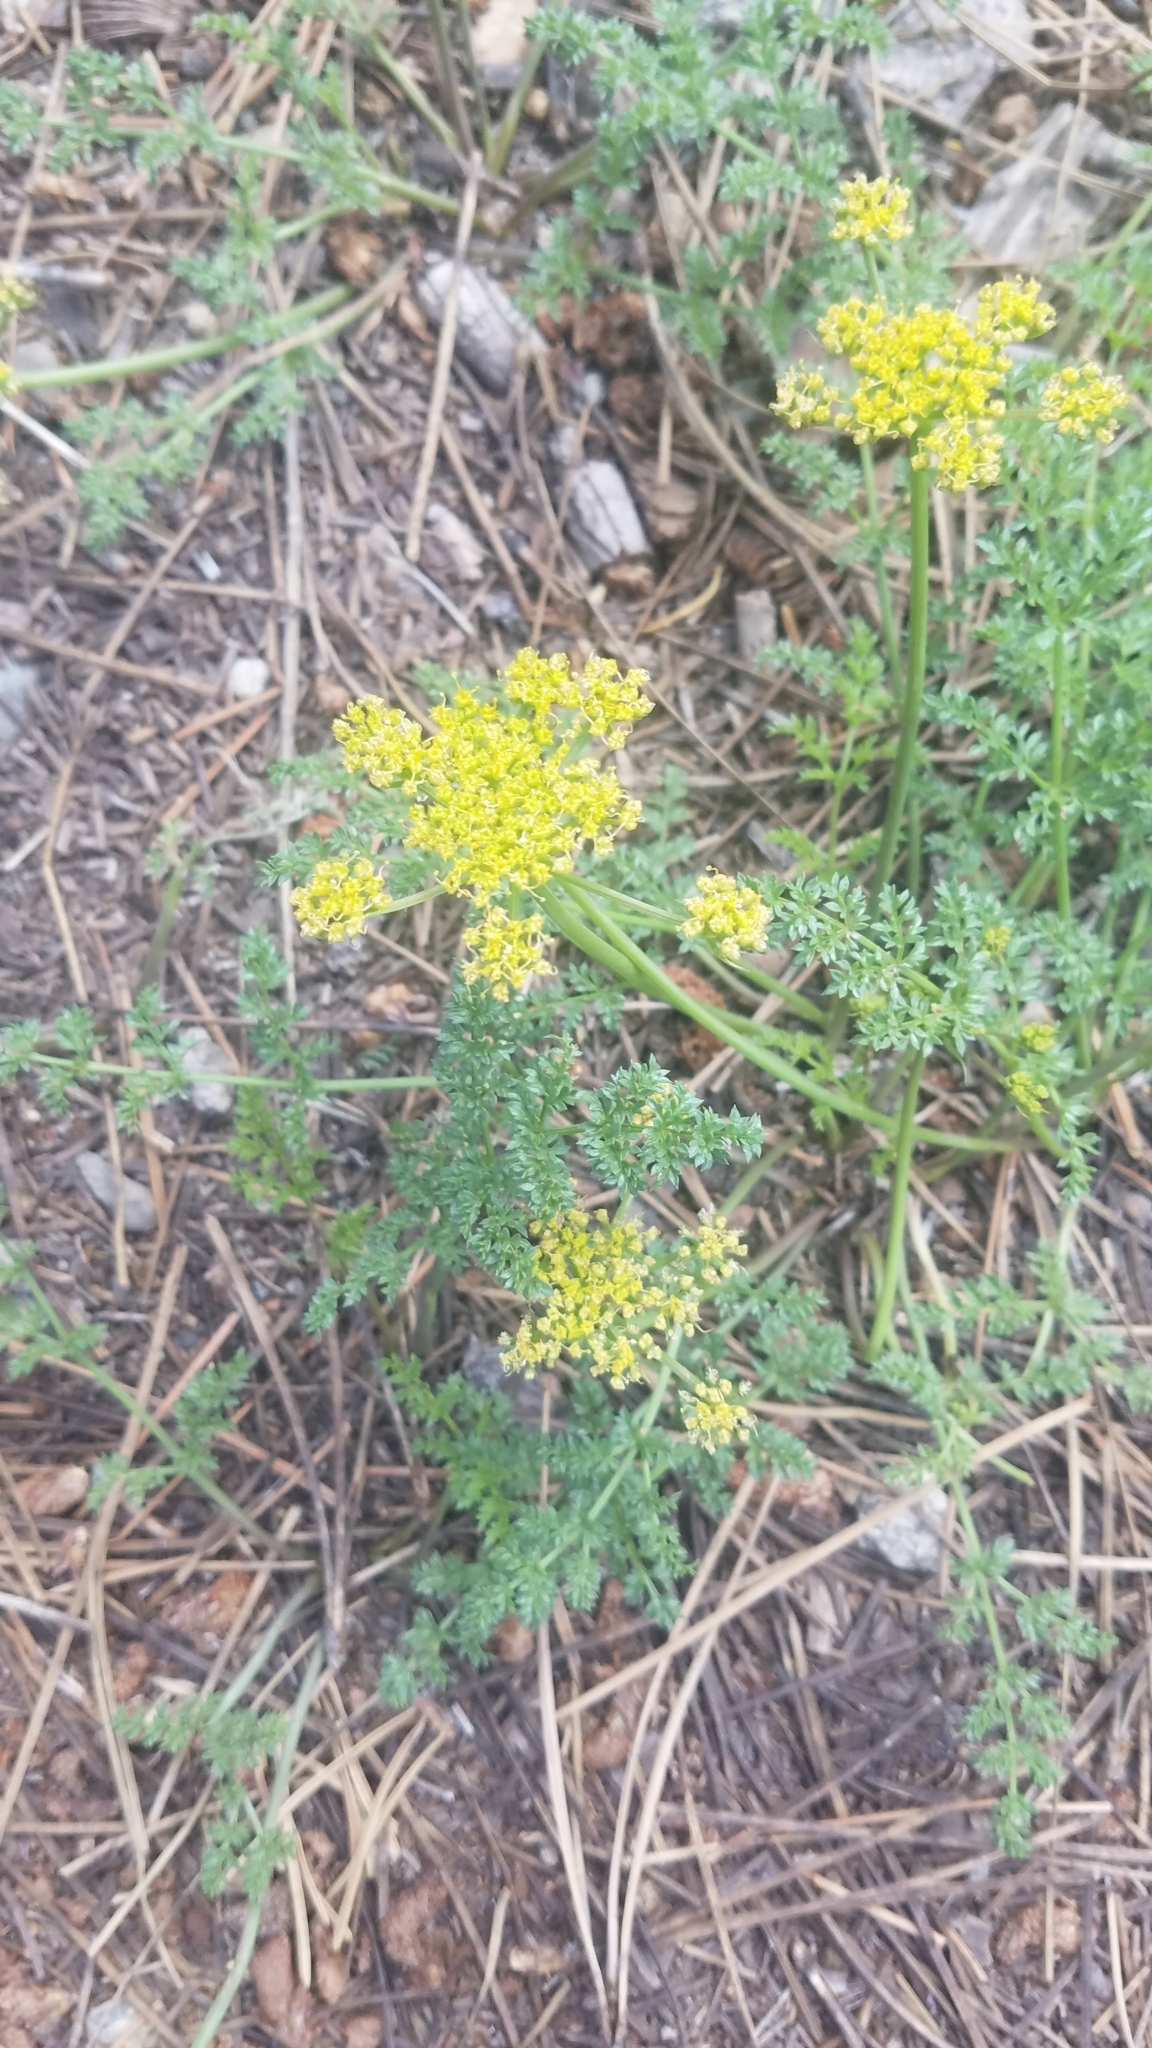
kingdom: Plantae
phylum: Tracheophyta
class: Magnoliopsida
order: Apiales
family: Apiaceae
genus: Pteryxia
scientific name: Pteryxia terebinthina
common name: Turpentine wavewing
